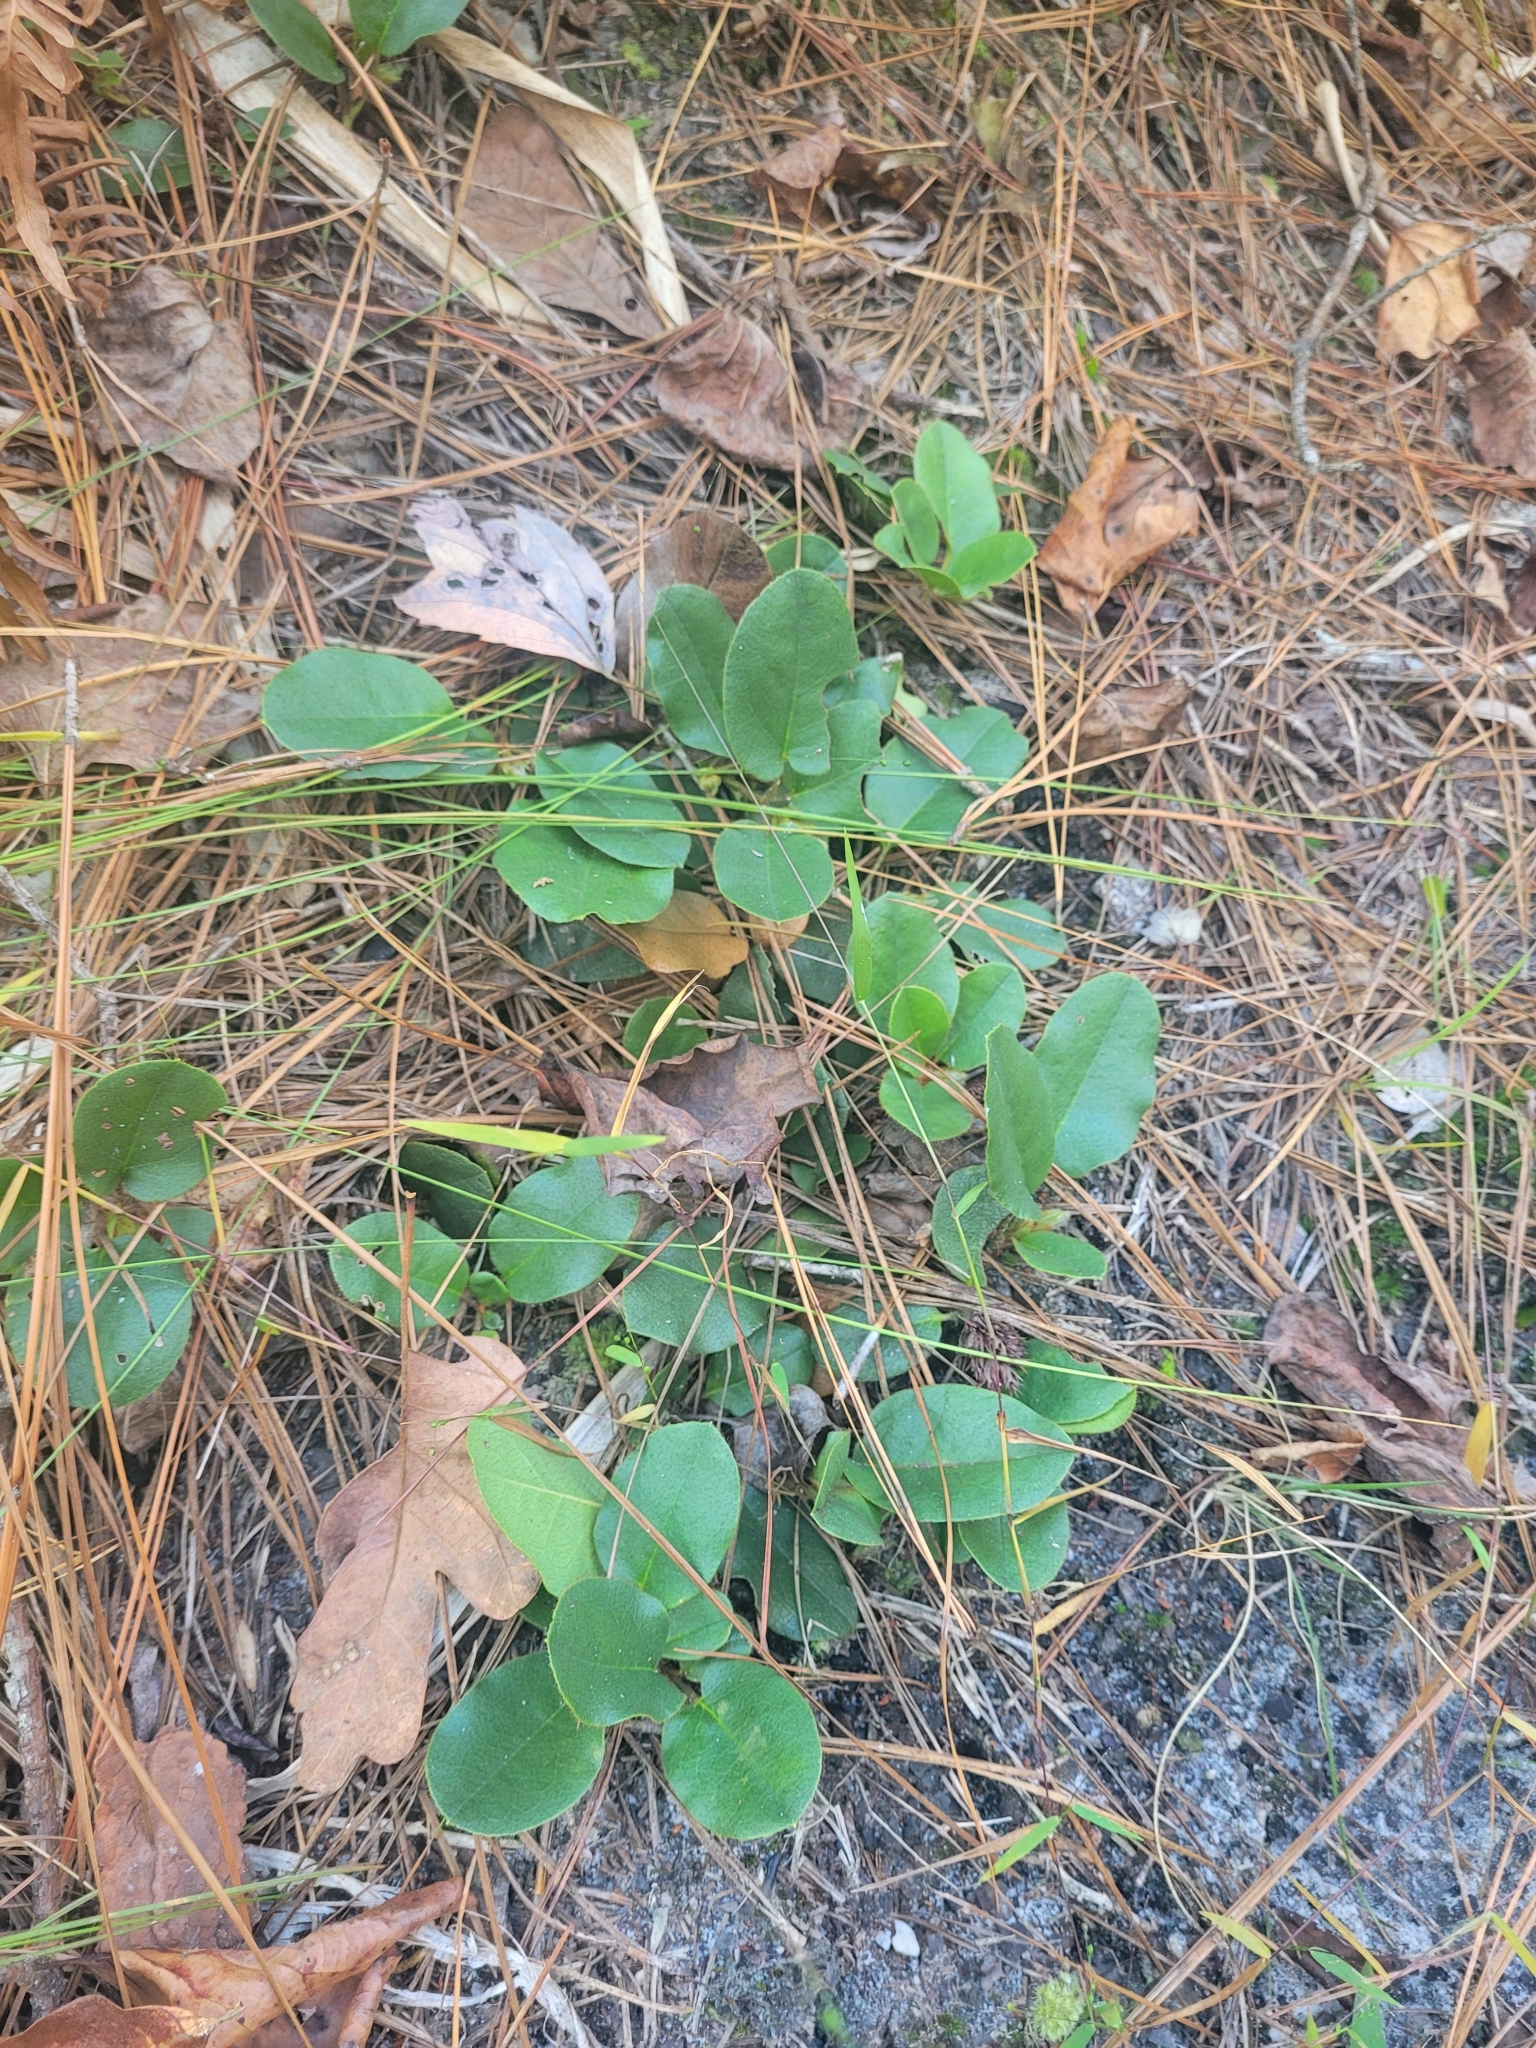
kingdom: Plantae
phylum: Tracheophyta
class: Magnoliopsida
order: Ericales
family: Ericaceae
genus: Epigaea
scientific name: Epigaea repens
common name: Gravelroot
